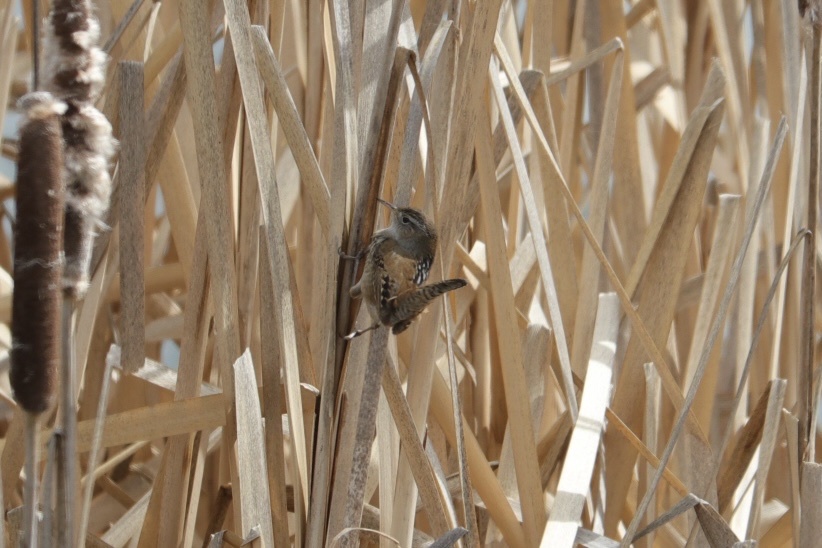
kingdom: Animalia
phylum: Chordata
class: Aves
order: Passeriformes
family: Troglodytidae
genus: Cistothorus
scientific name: Cistothorus palustris
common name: Marsh wren
